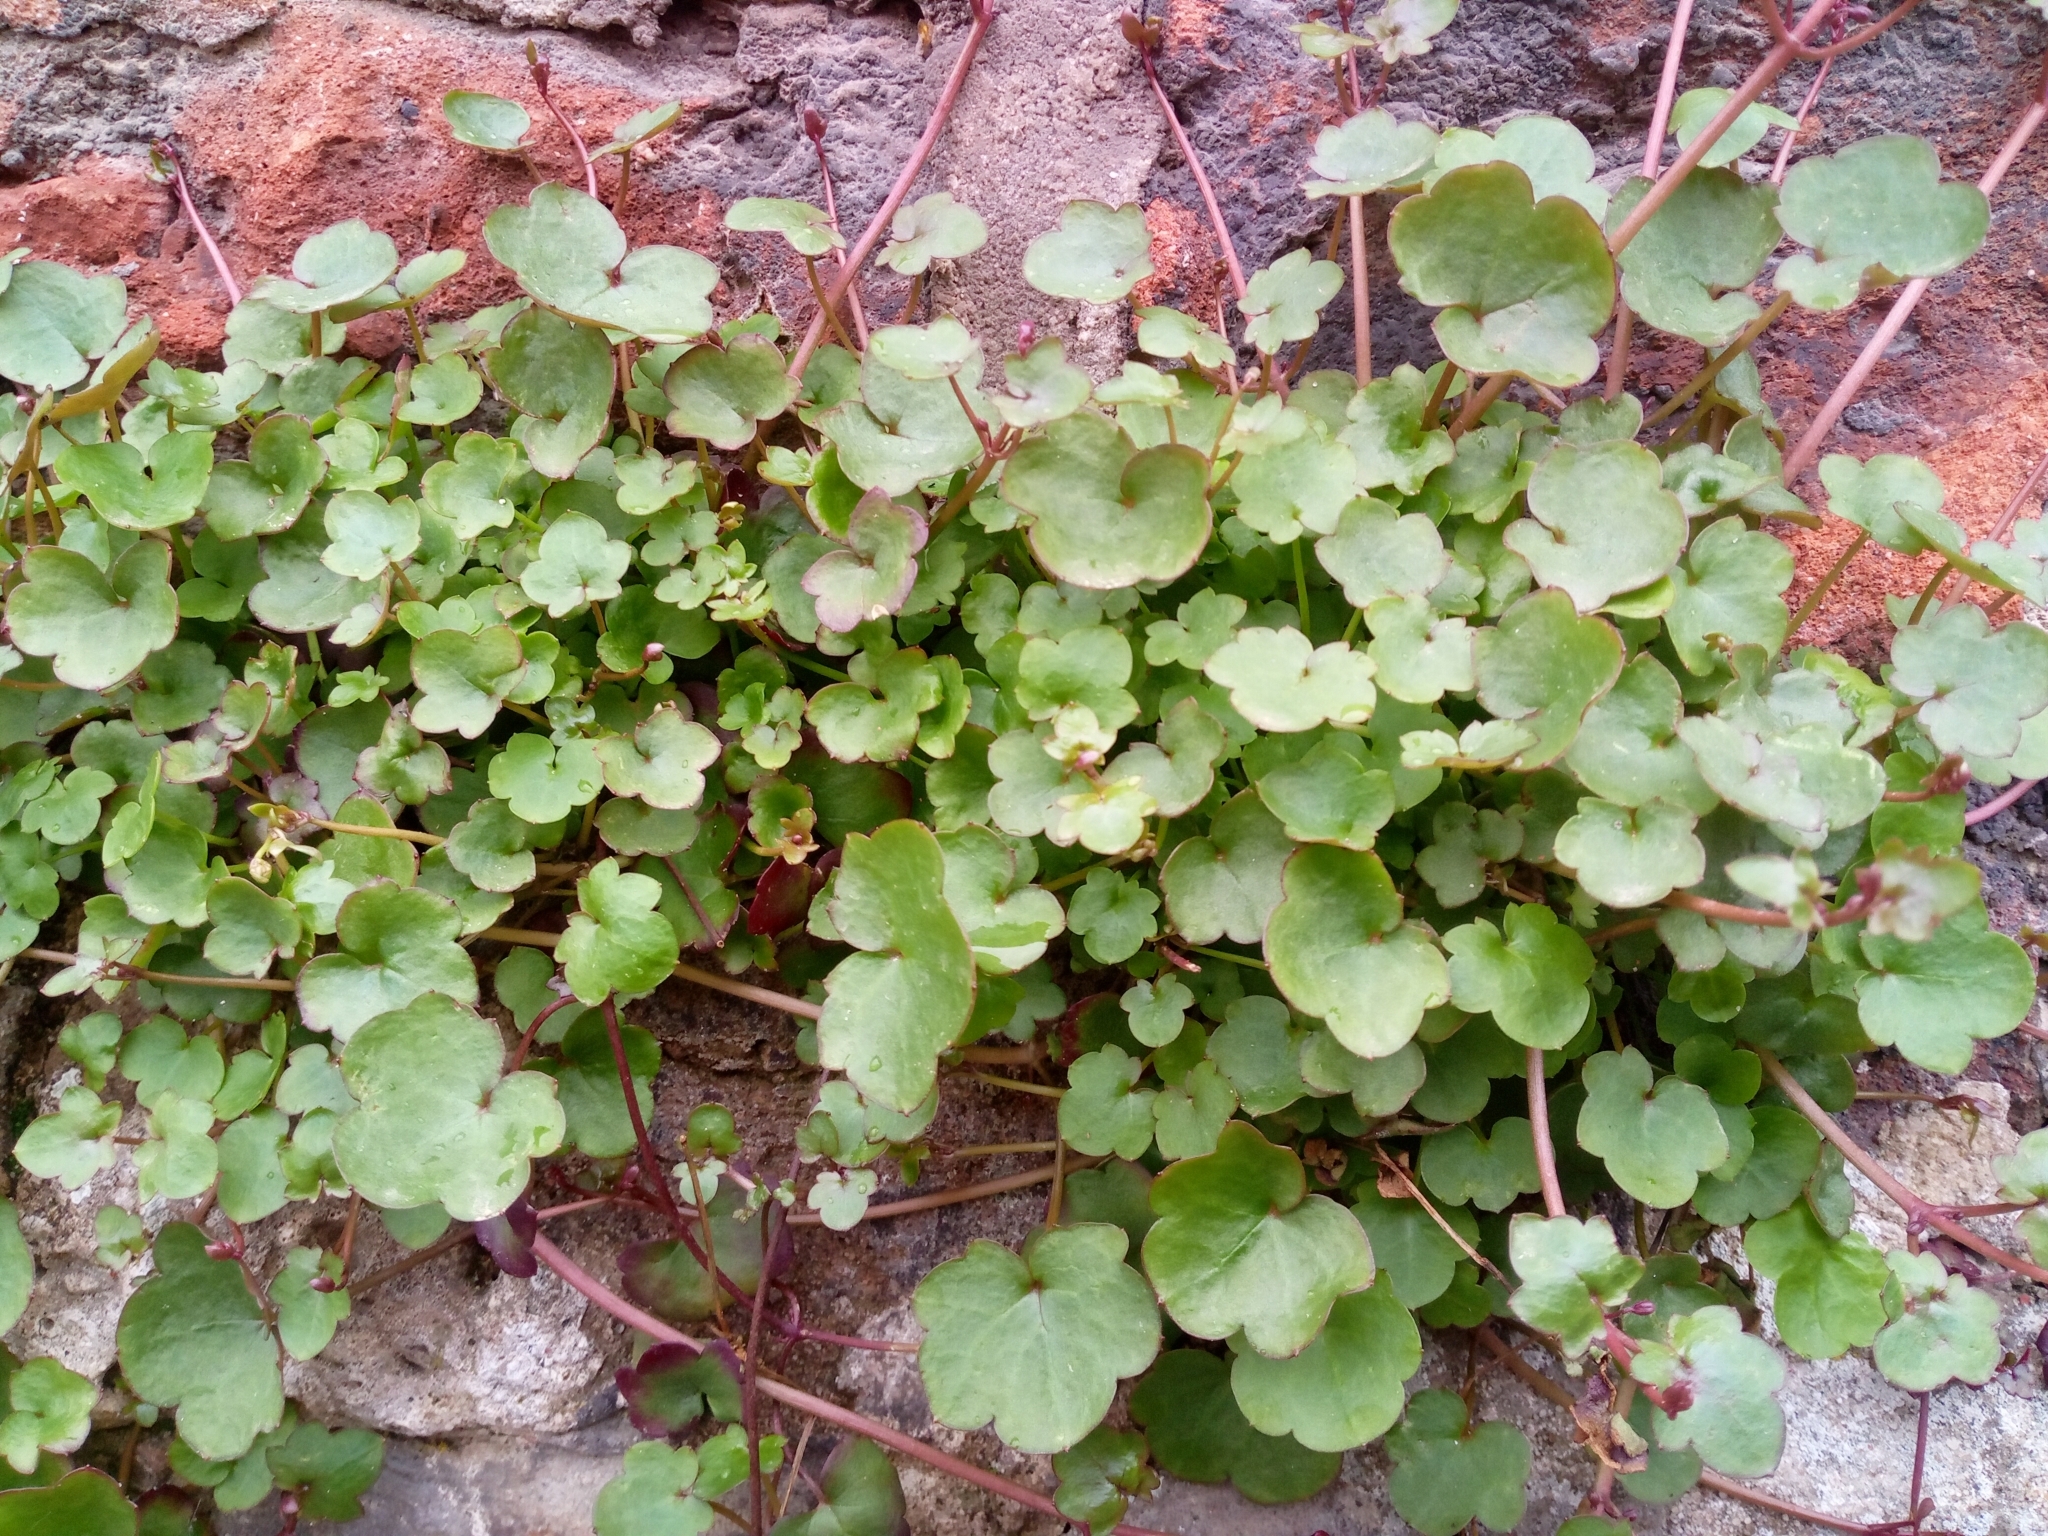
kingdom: Plantae
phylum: Tracheophyta
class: Magnoliopsida
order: Lamiales
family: Plantaginaceae
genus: Cymbalaria
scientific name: Cymbalaria muralis
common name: Ivy-leaved toadflax
